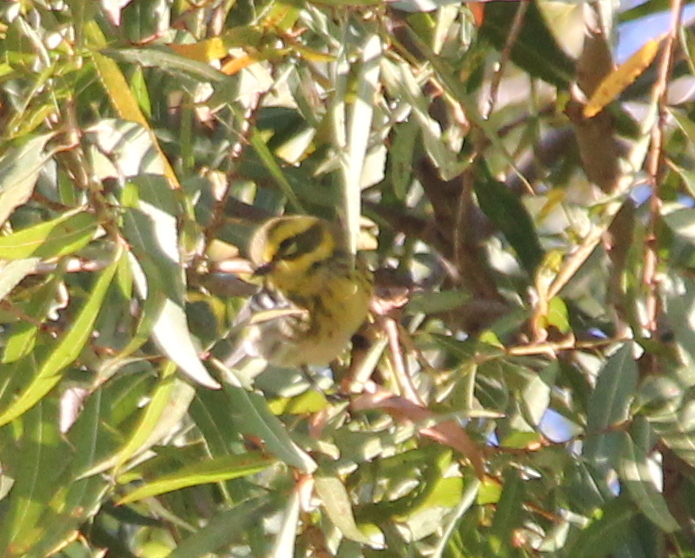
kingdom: Animalia
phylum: Chordata
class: Aves
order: Passeriformes
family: Parulidae
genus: Setophaga
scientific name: Setophaga townsendi
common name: Townsend's warbler
